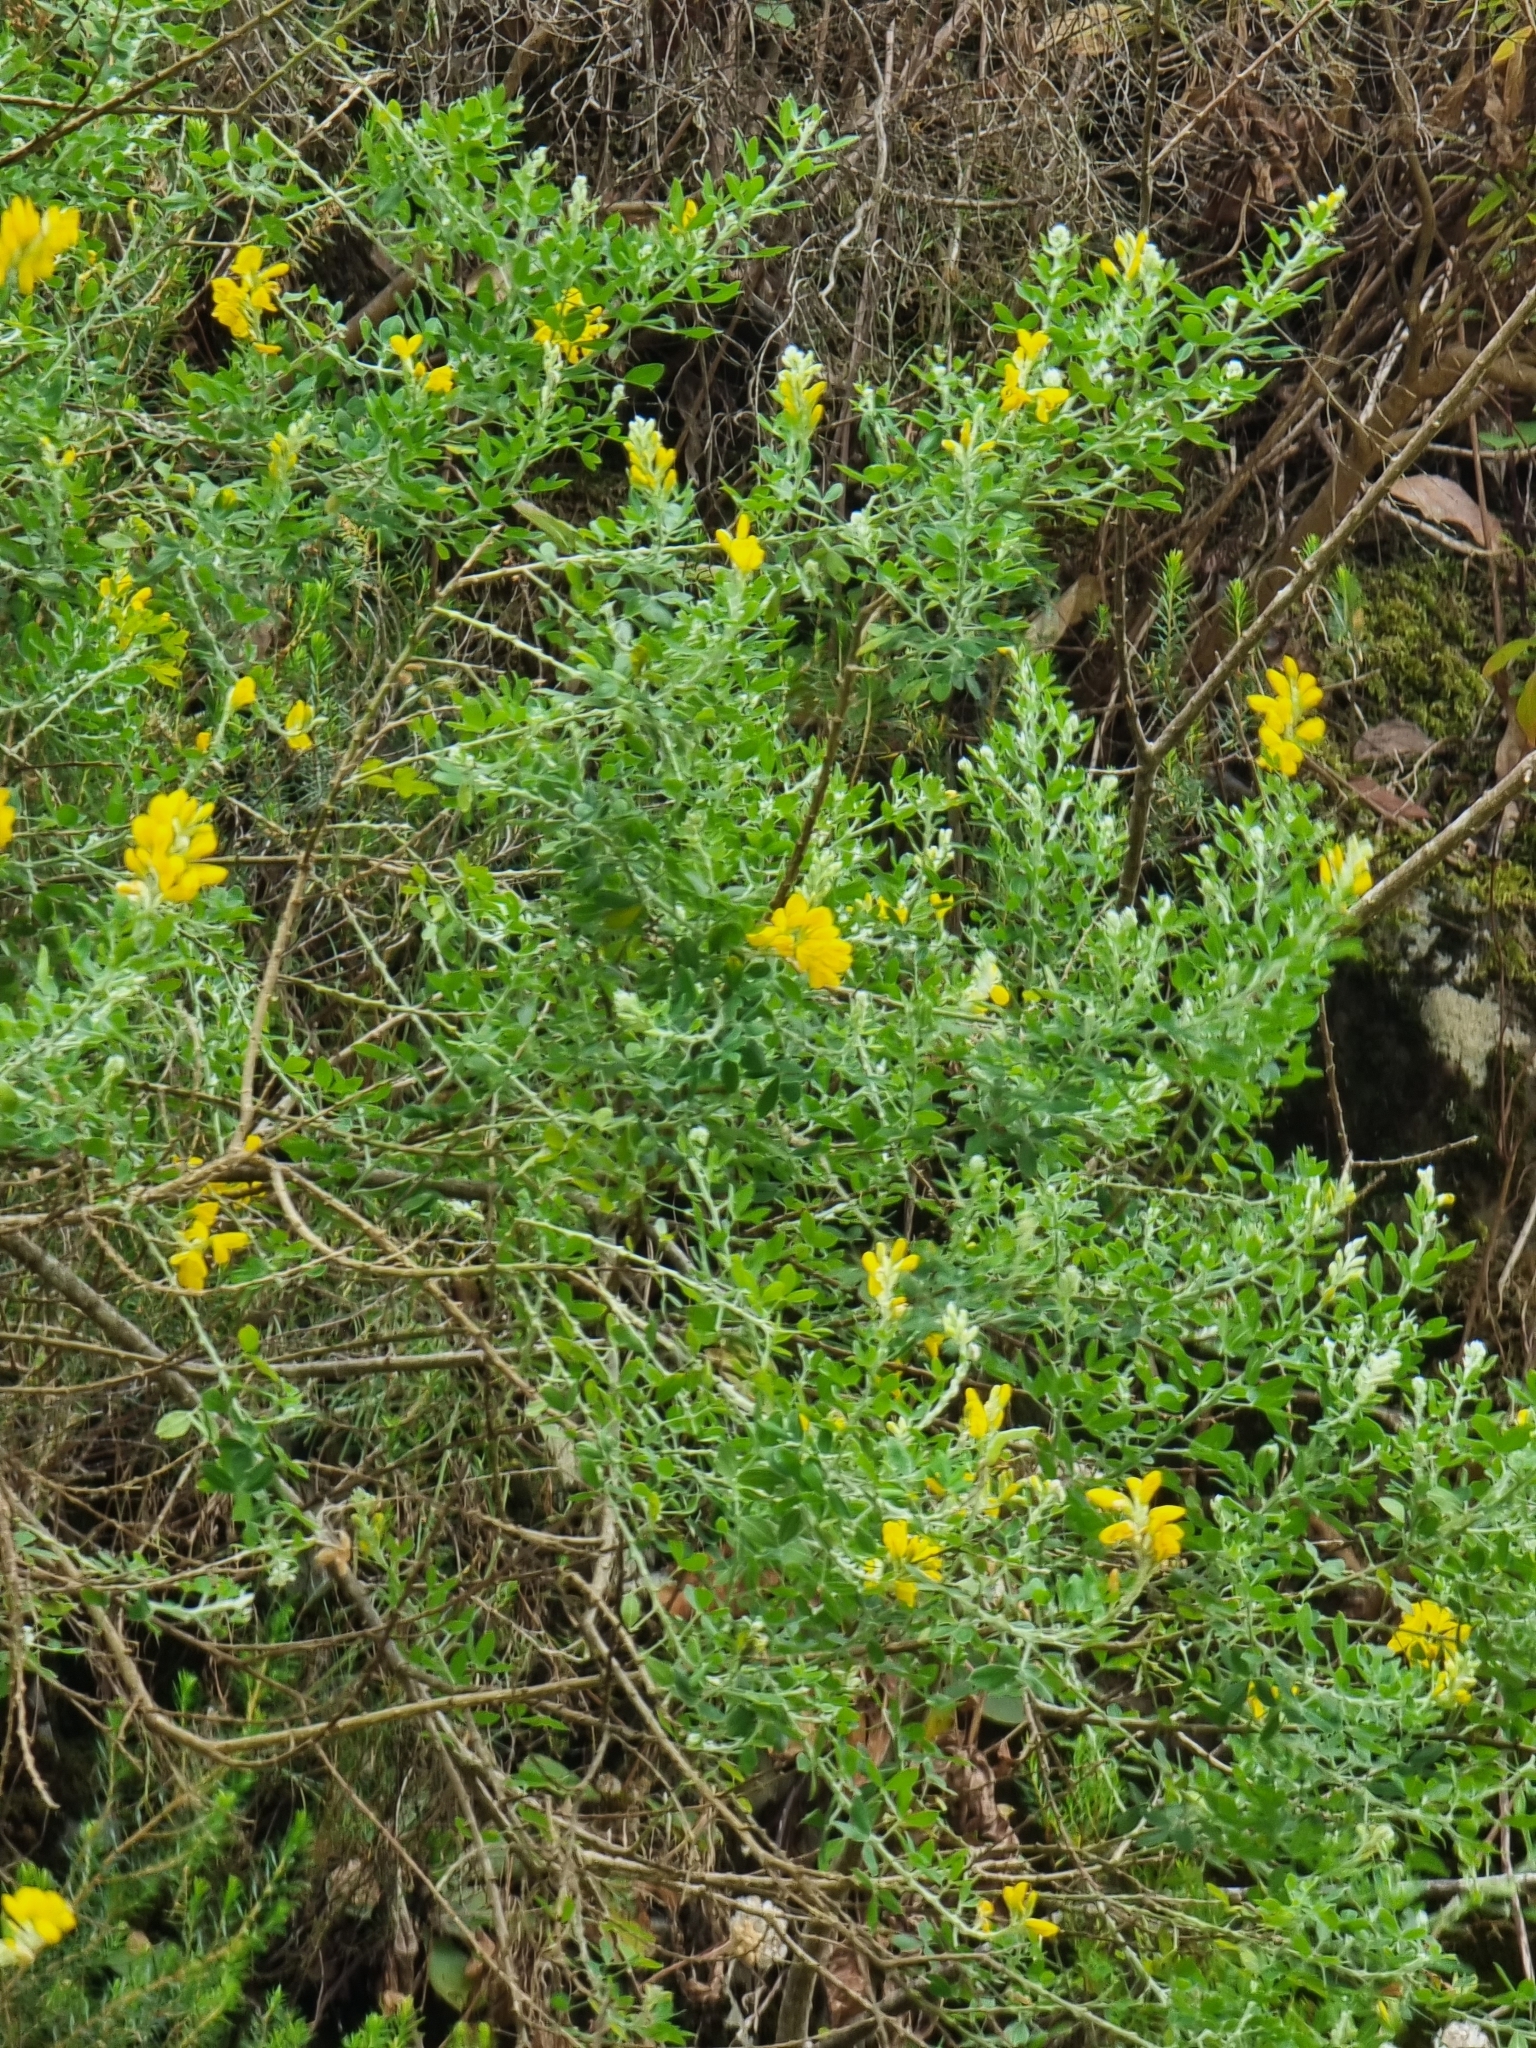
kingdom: Plantae
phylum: Tracheophyta
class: Magnoliopsida
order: Fabales
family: Fabaceae
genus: Genista
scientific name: Genista maderensis
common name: Madeira dyer's greenweed
